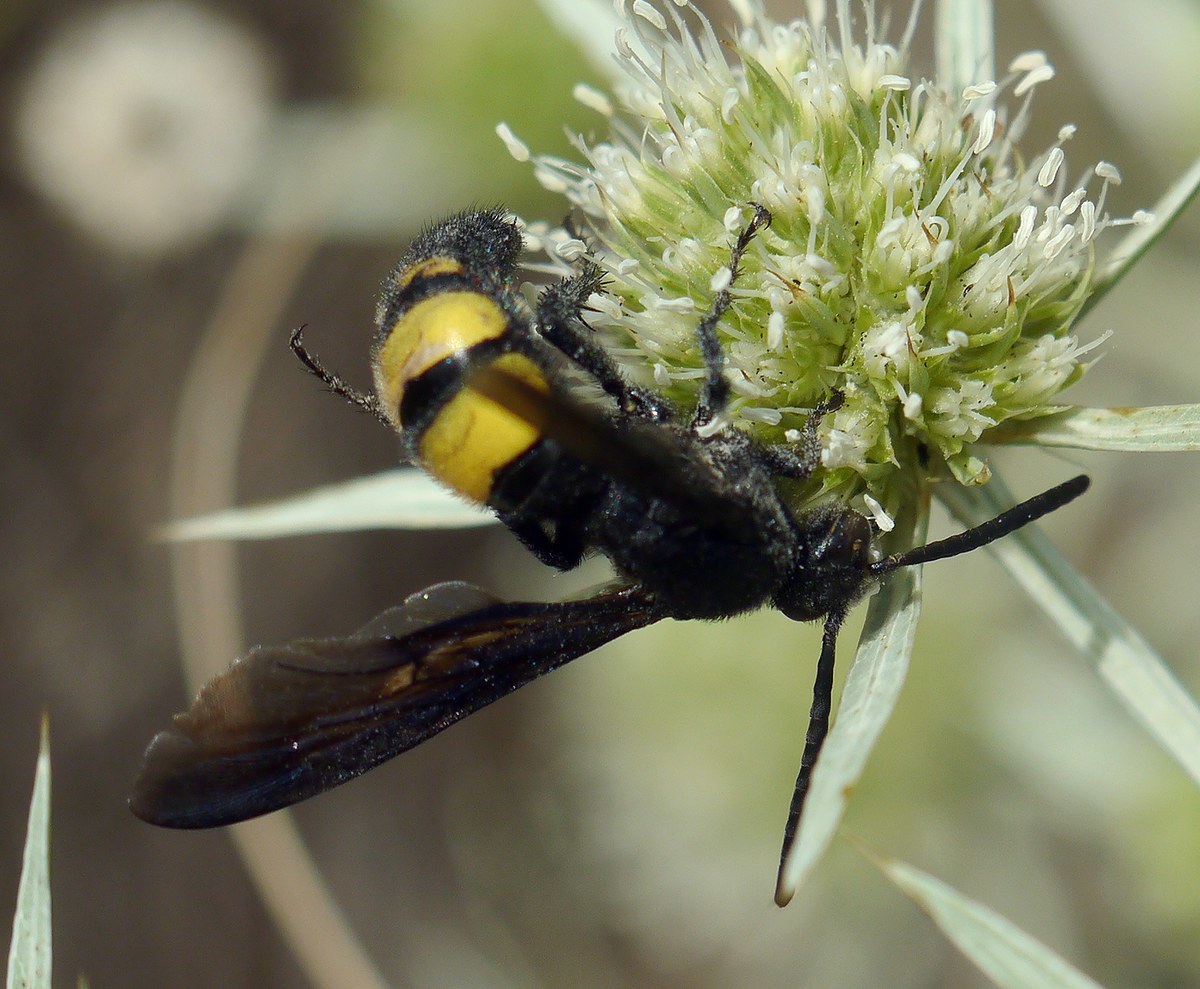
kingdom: Animalia
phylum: Arthropoda
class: Insecta
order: Hymenoptera
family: Vespidae
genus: Vespa
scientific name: Vespa galbula
